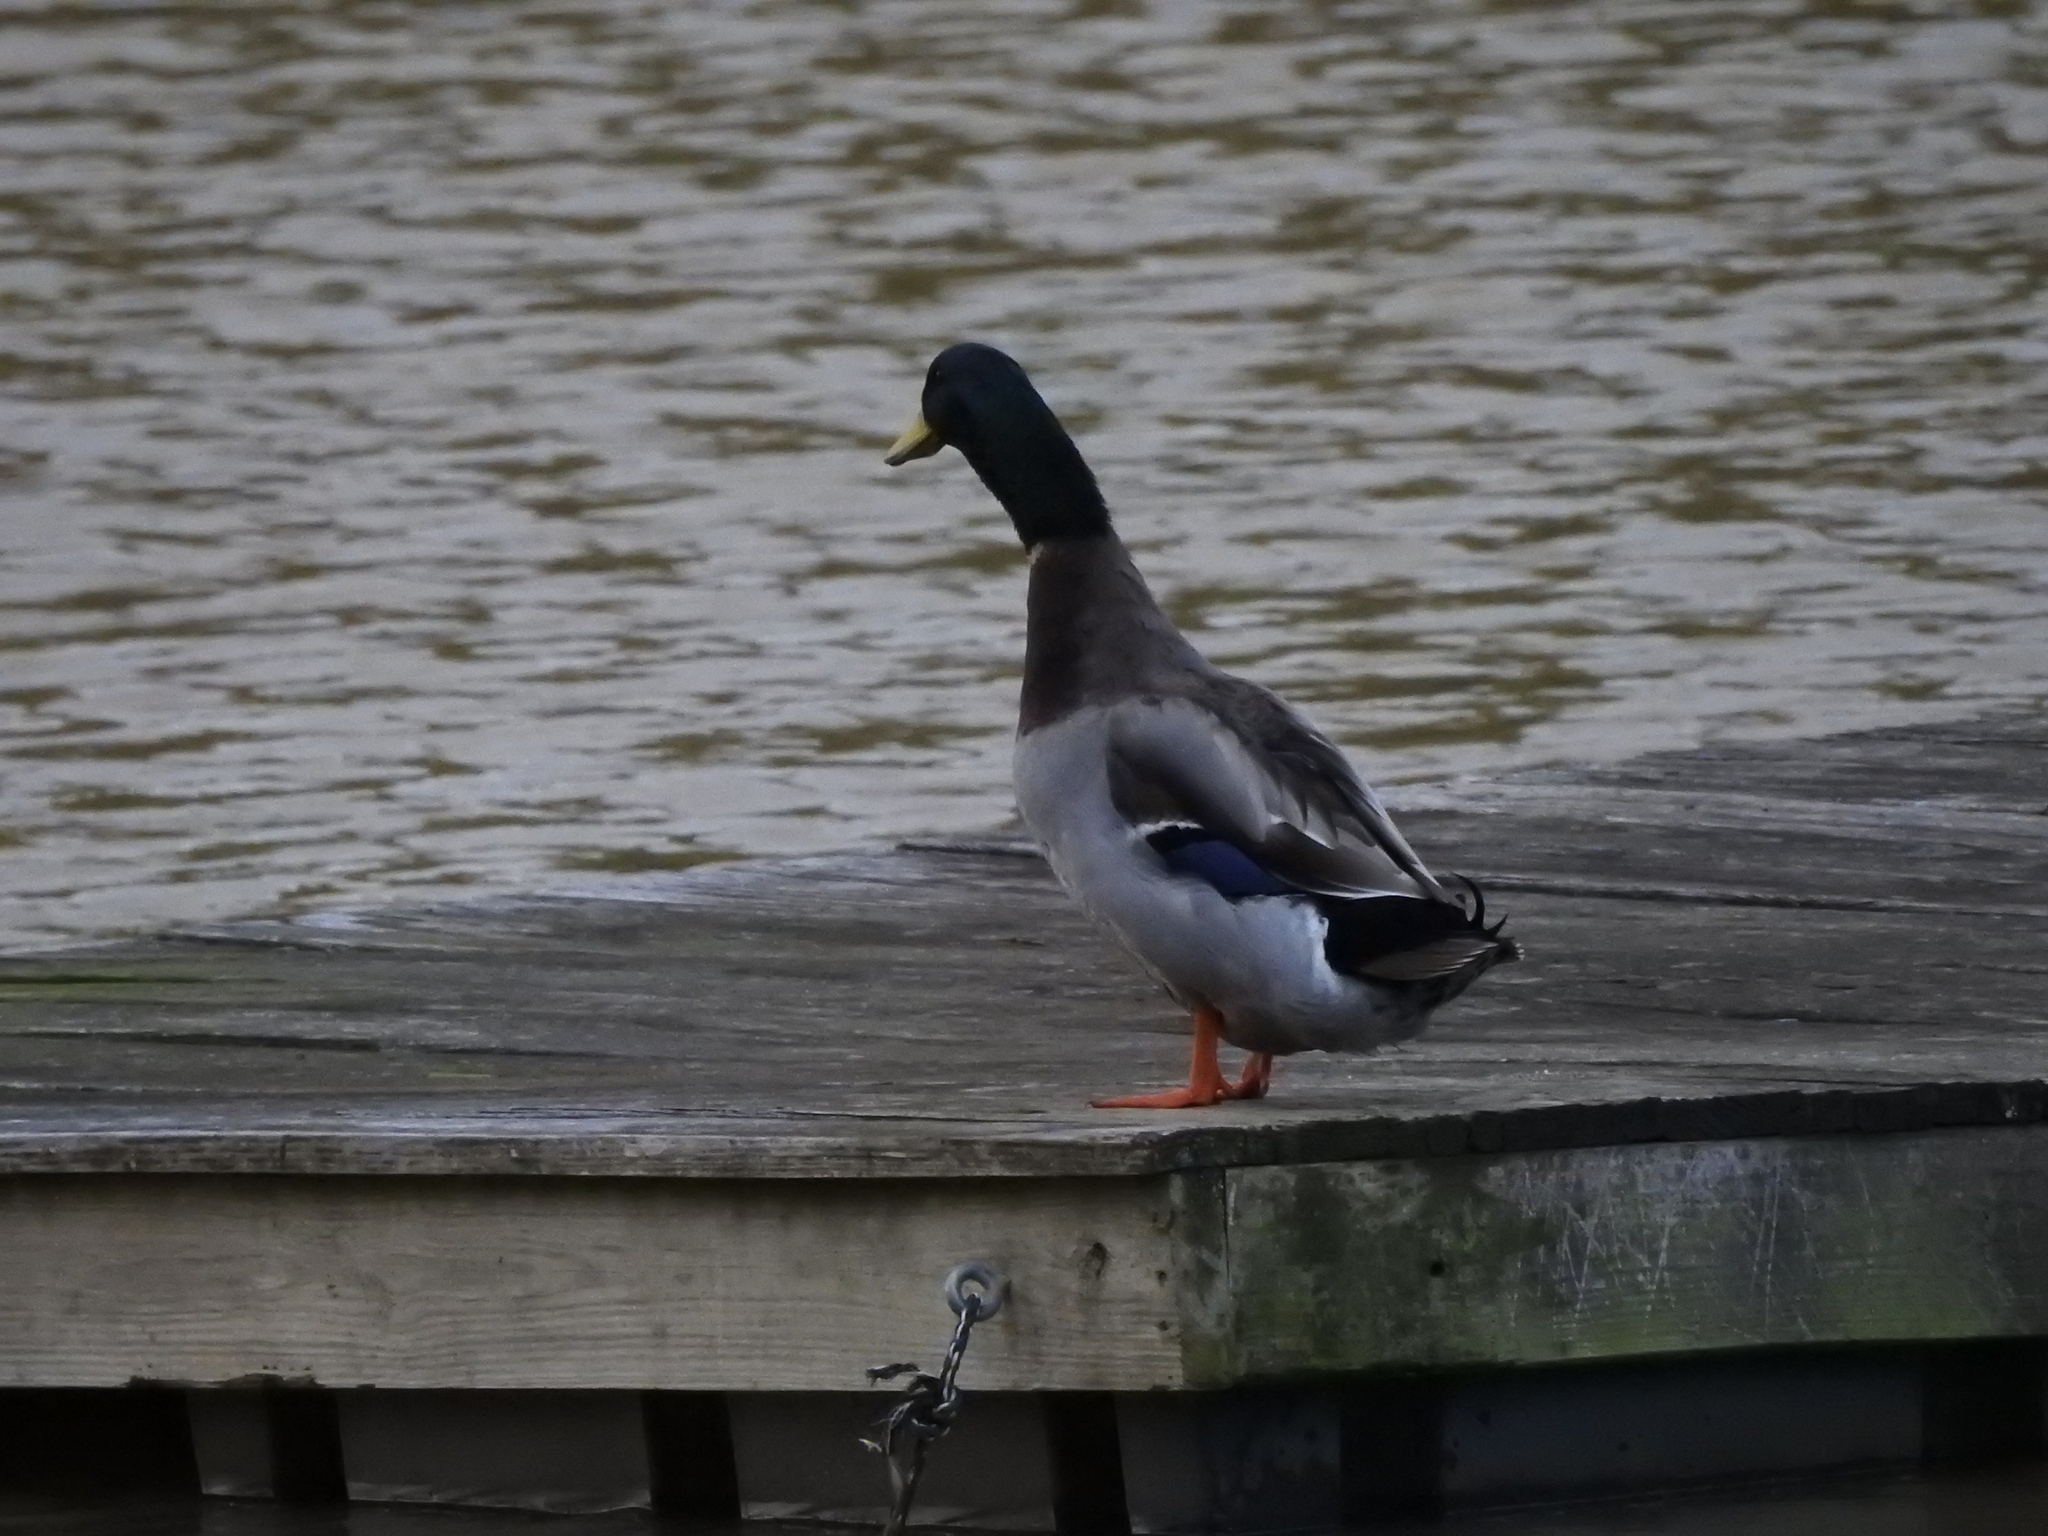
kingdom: Animalia
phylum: Chordata
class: Aves
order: Anseriformes
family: Anatidae
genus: Anas
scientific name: Anas platyrhynchos
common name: Mallard
